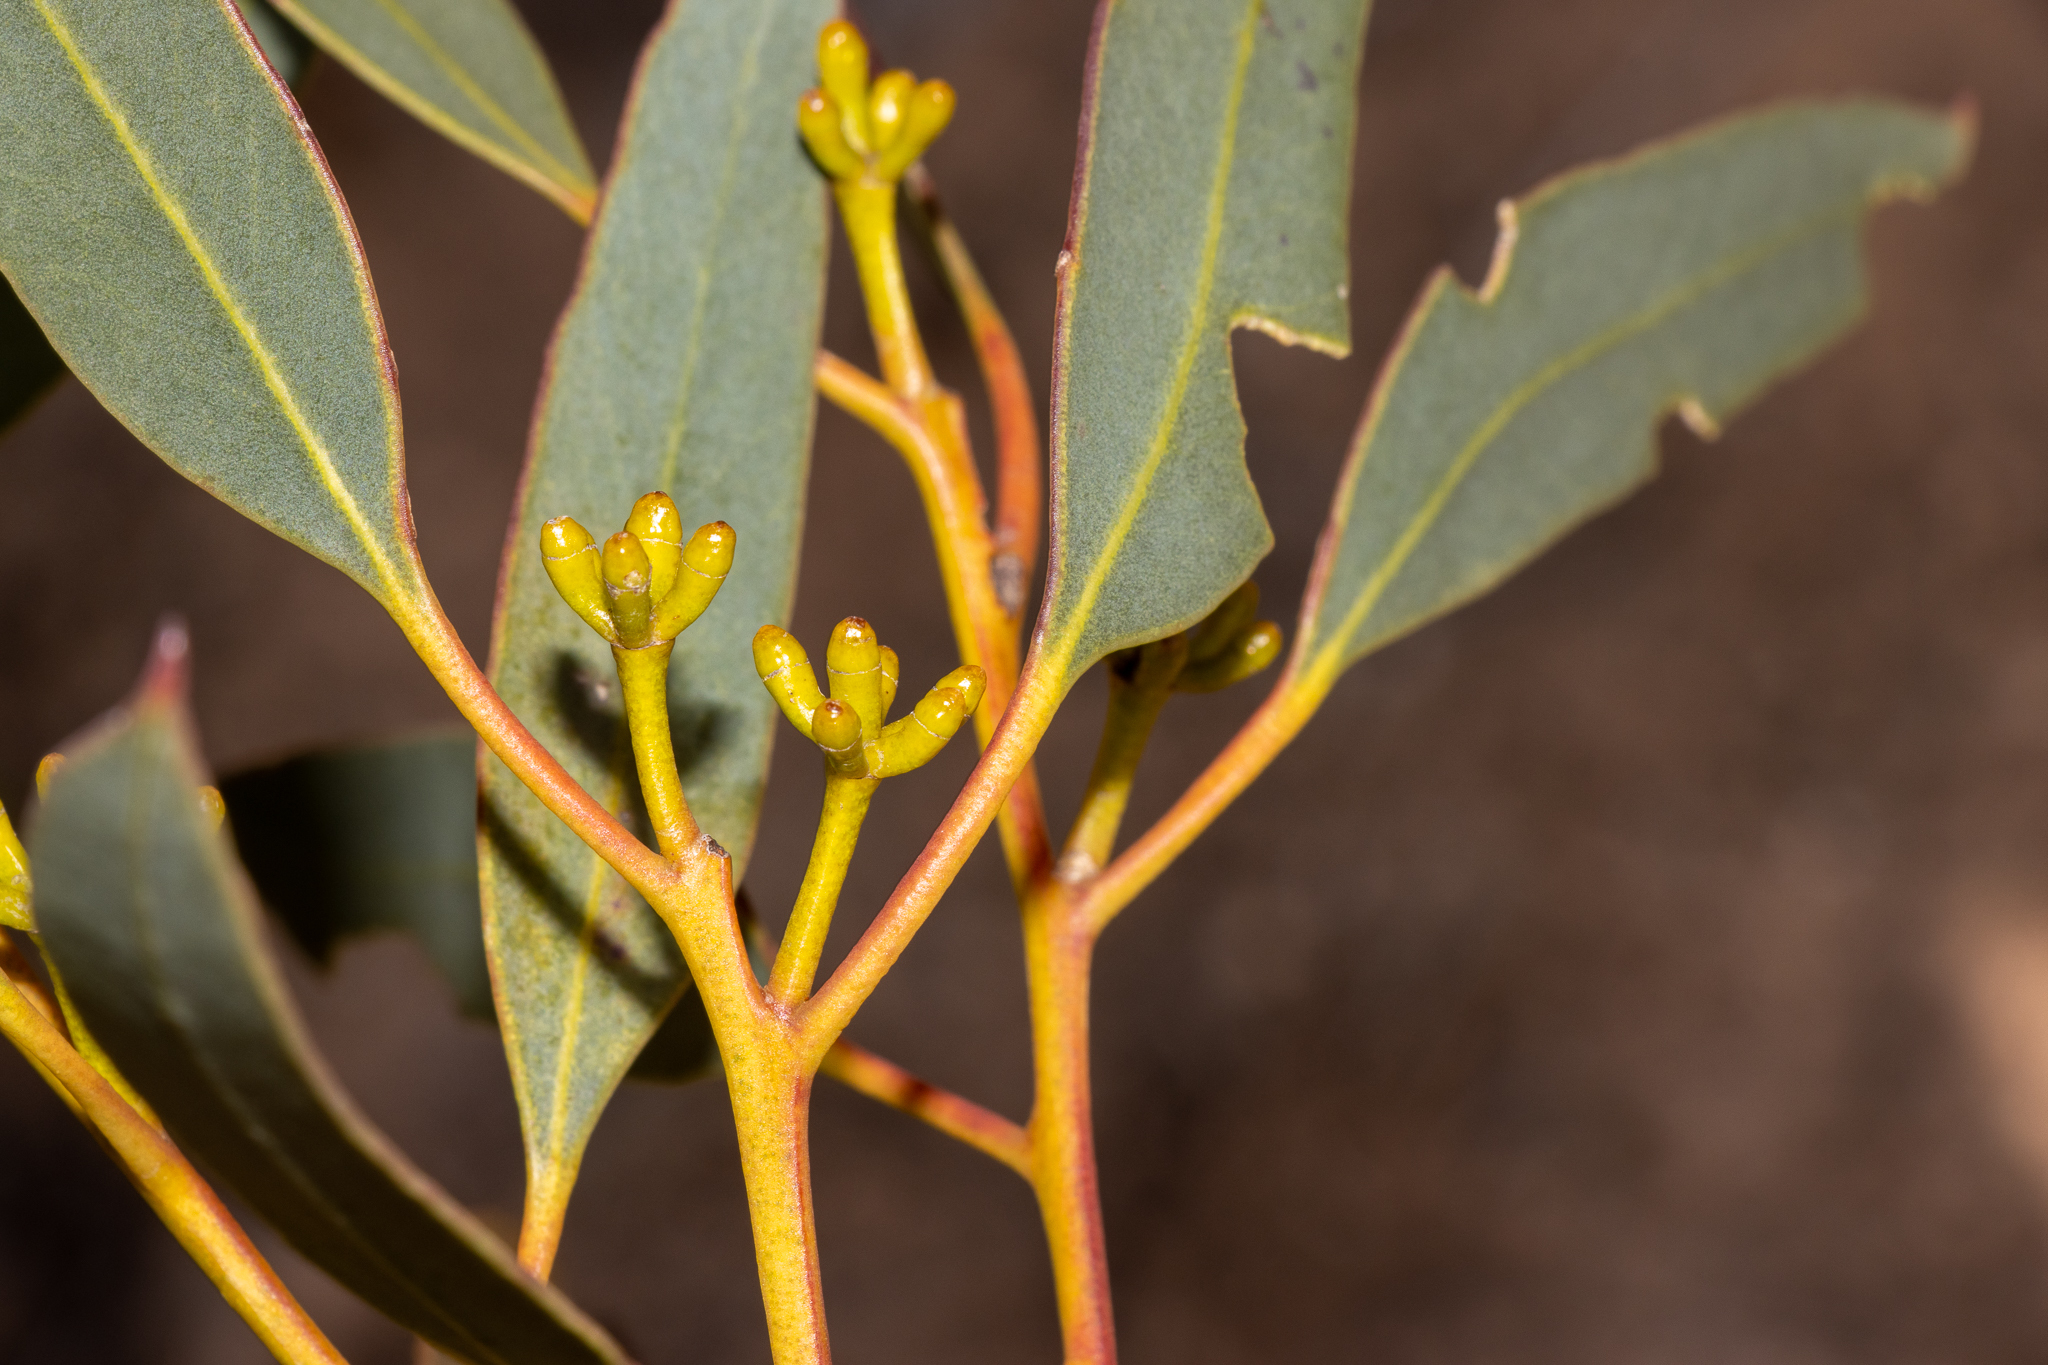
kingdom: Plantae
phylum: Tracheophyta
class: Magnoliopsida
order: Myrtales
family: Myrtaceae
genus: Eucalyptus
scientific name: Eucalyptus calcareana
